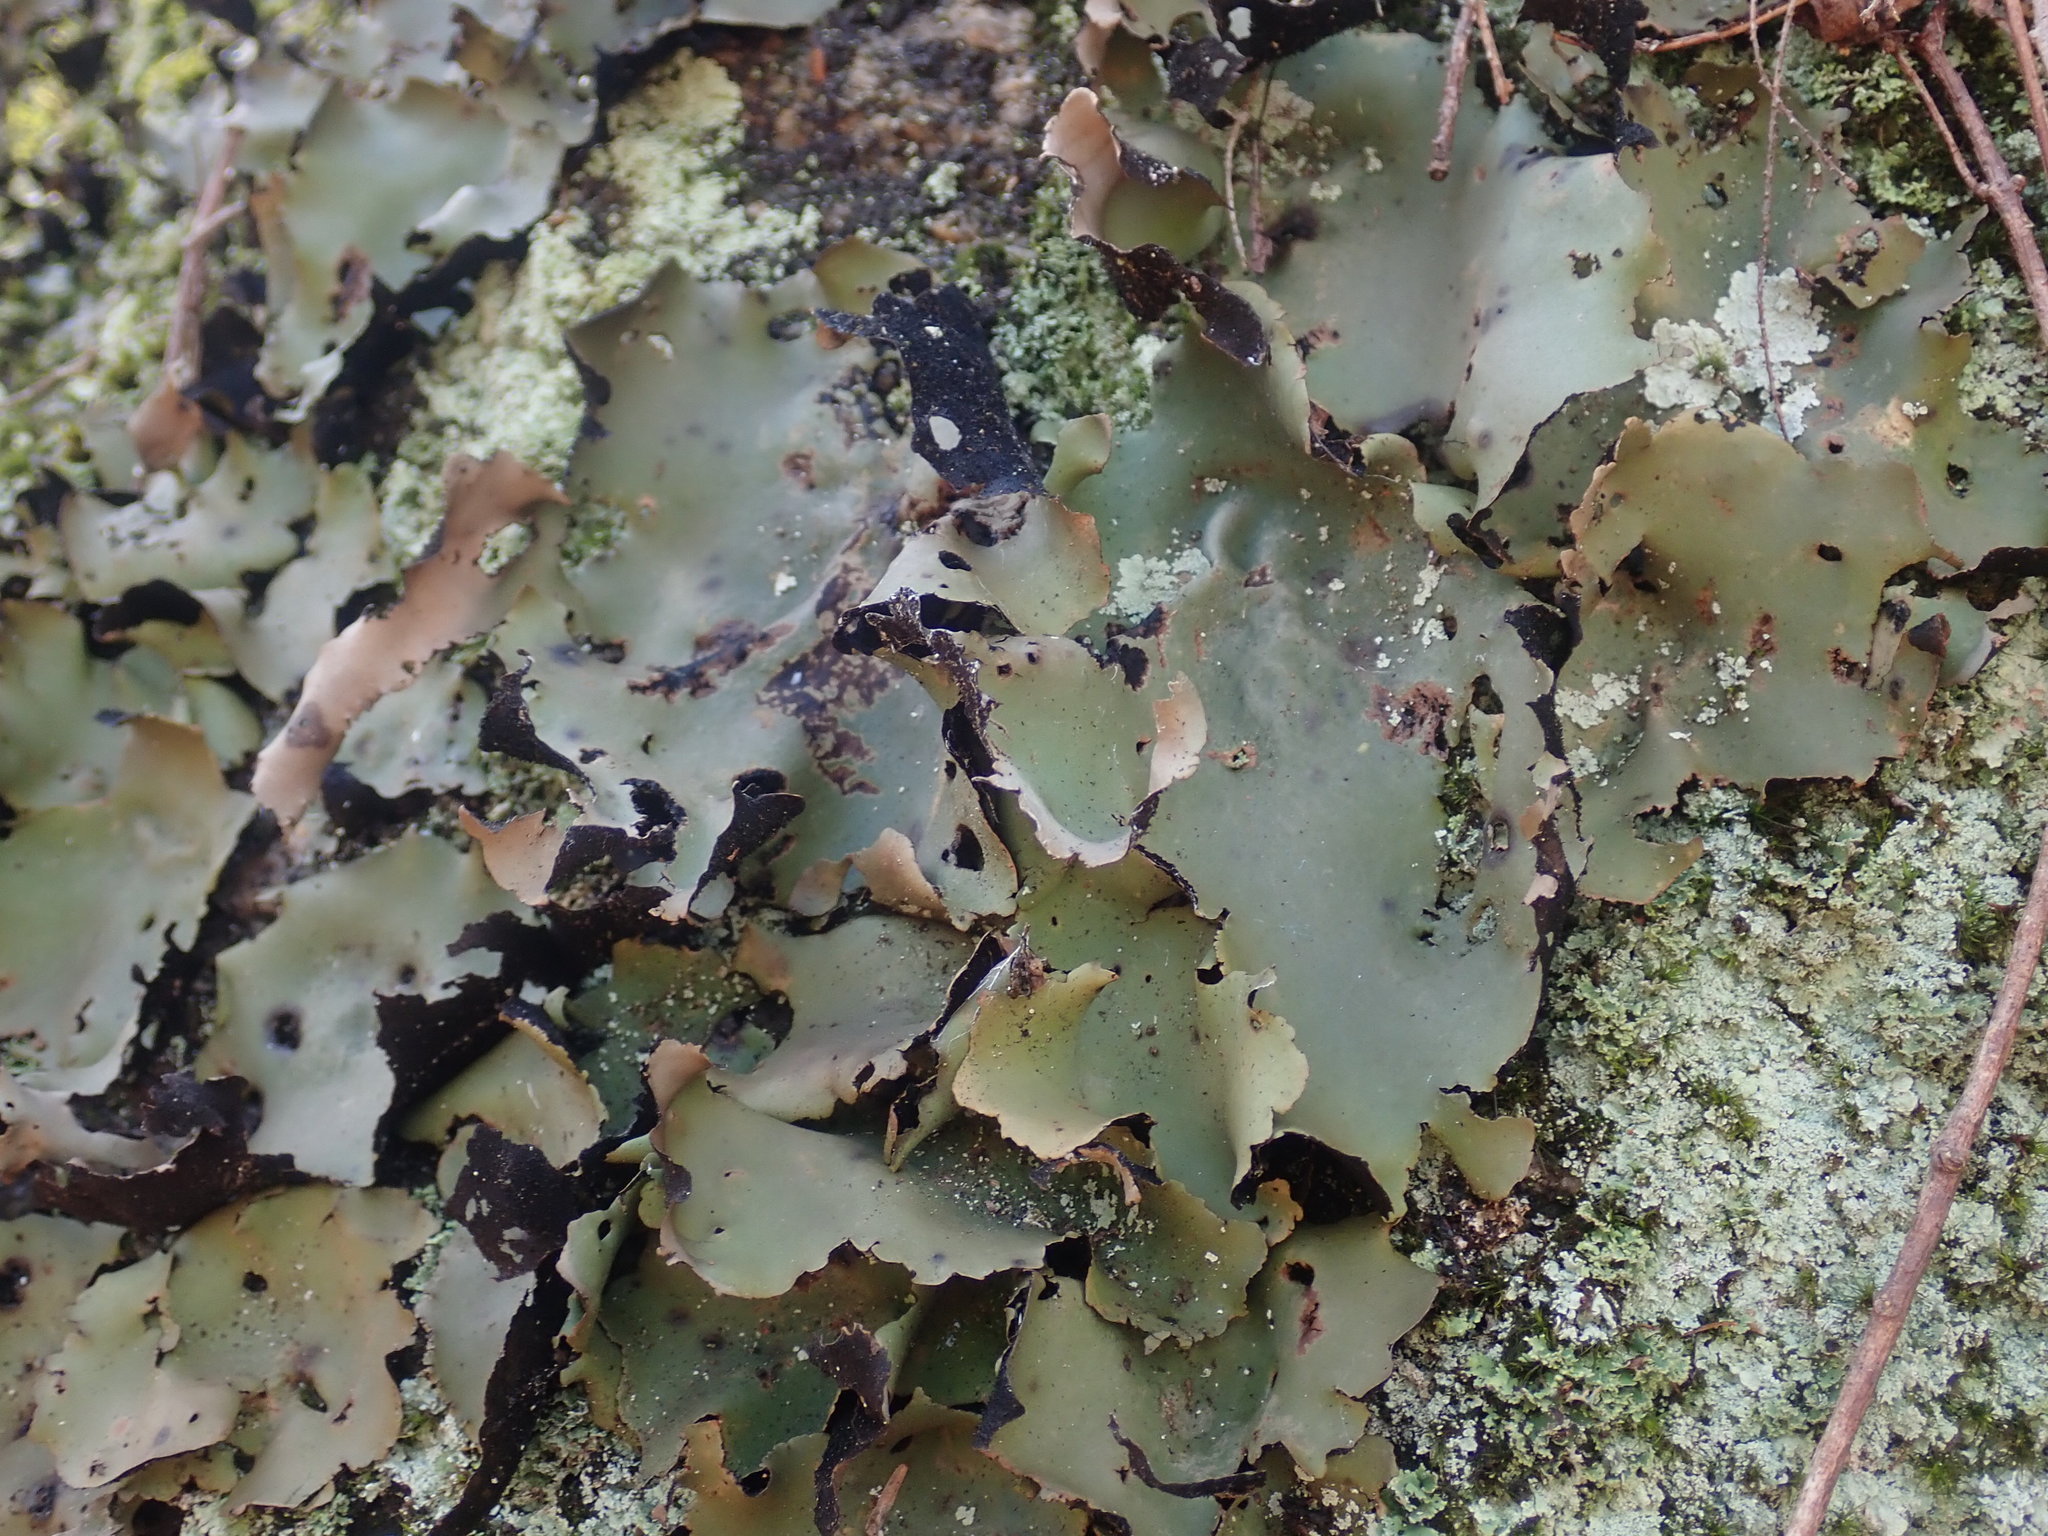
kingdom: Fungi
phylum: Ascomycota
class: Lecanoromycetes
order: Umbilicariales
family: Umbilicariaceae
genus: Umbilicaria
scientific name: Umbilicaria mammulata
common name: Smooth rock tripe
